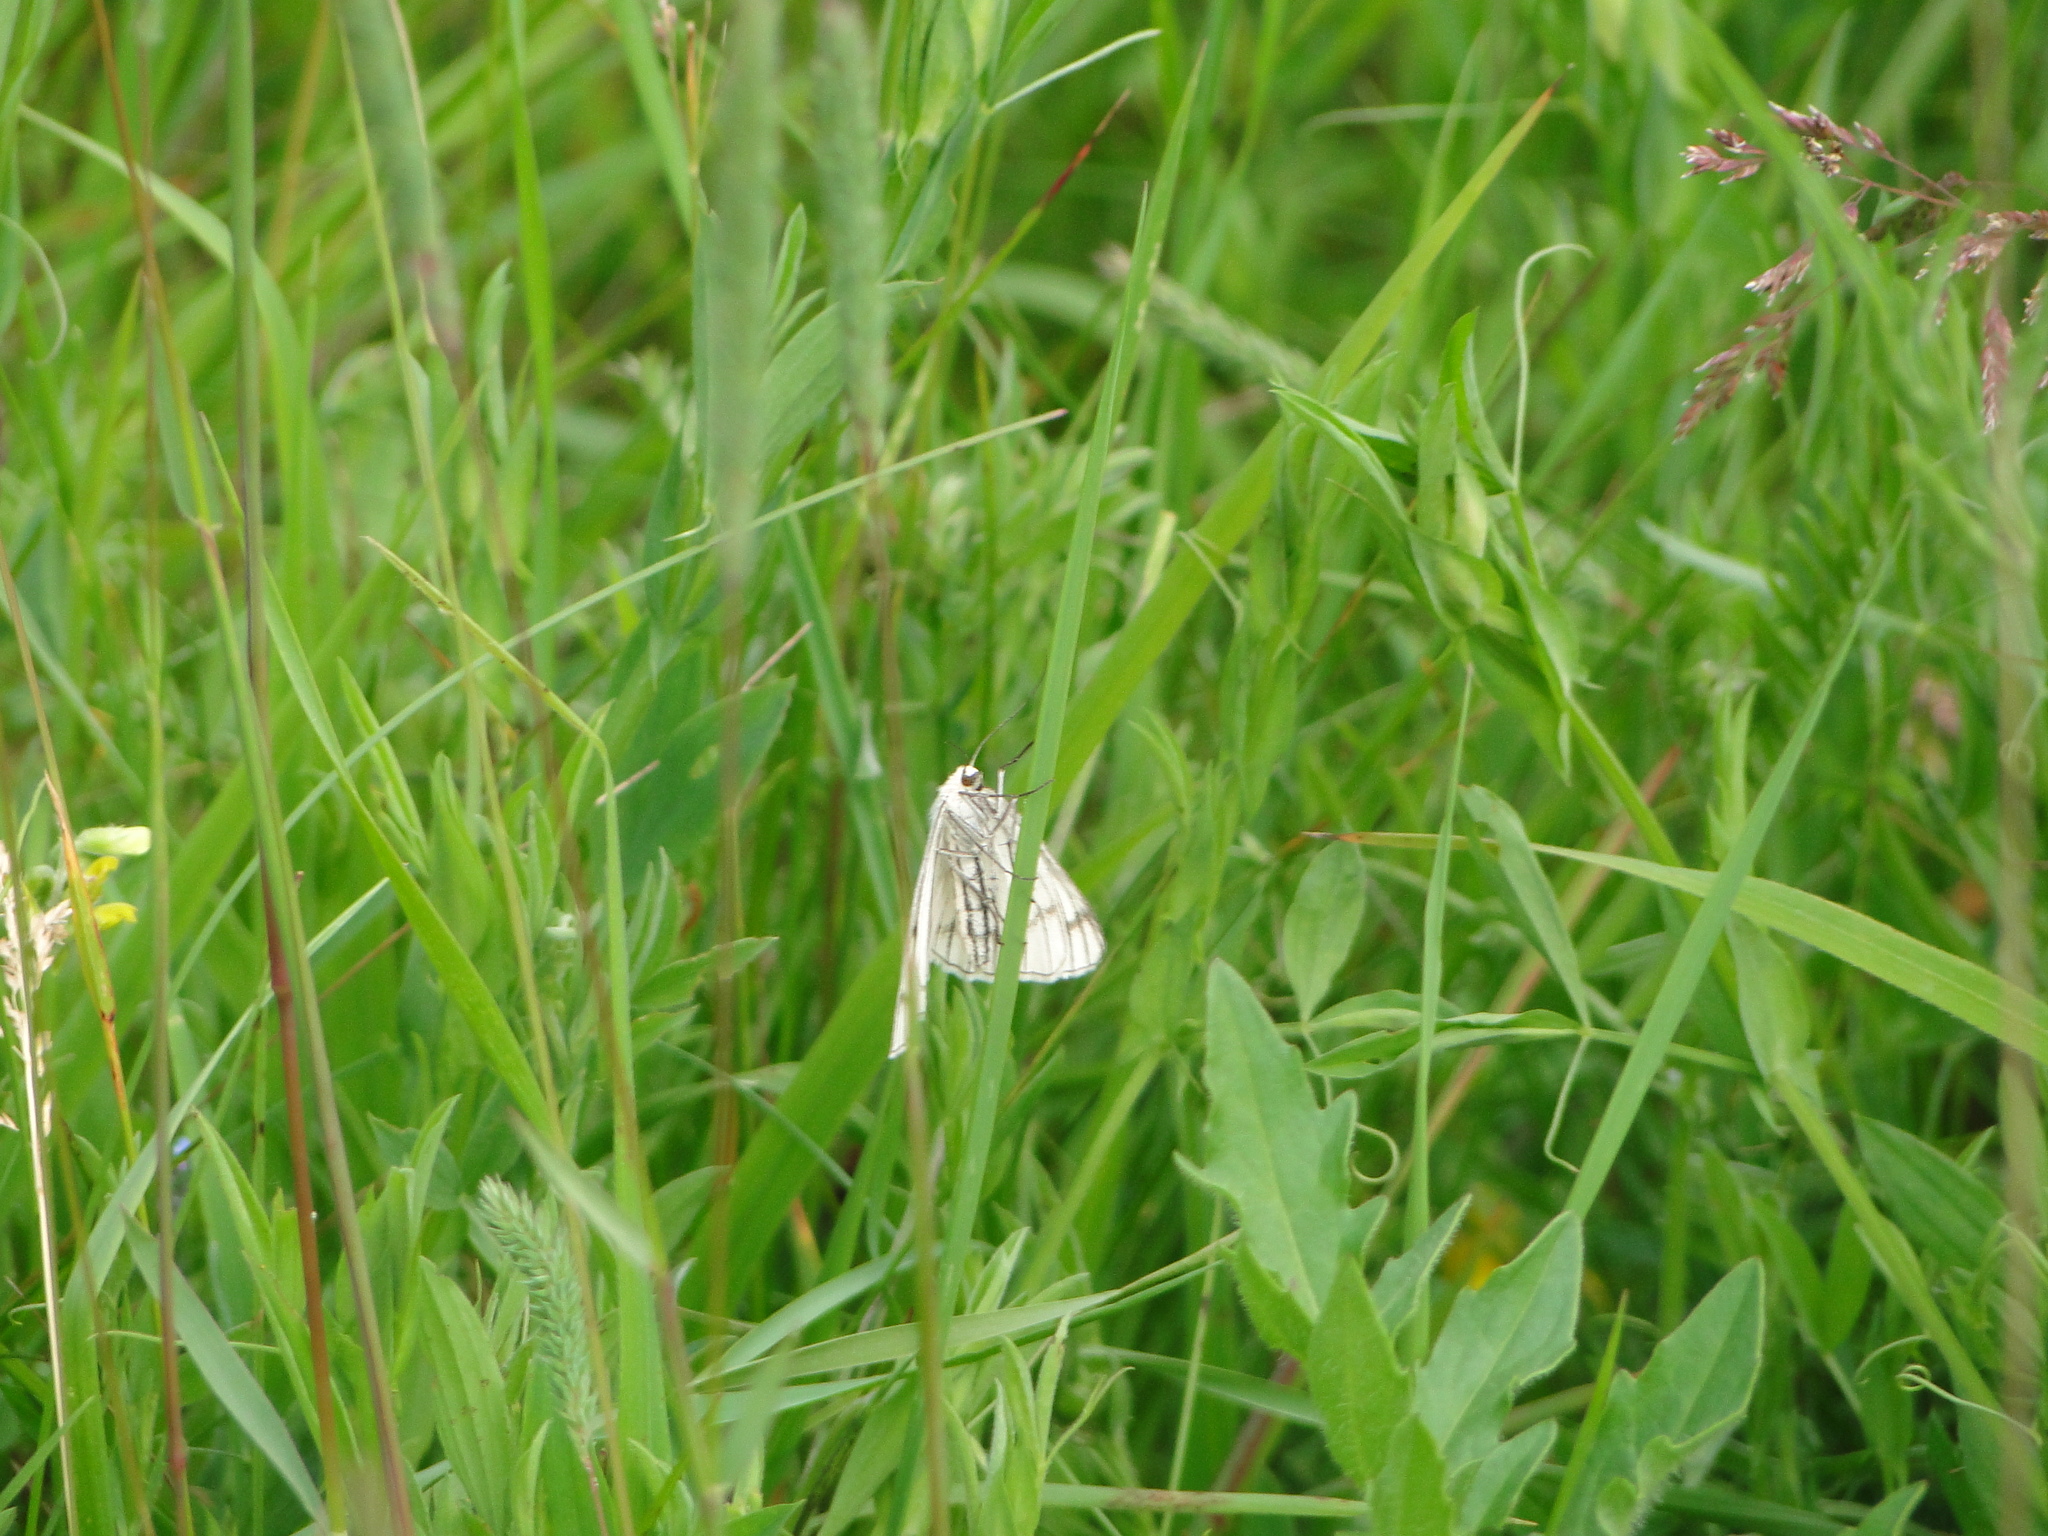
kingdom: Animalia
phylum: Arthropoda
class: Insecta
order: Lepidoptera
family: Geometridae
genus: Siona
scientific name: Siona lineata
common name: Black-veined moth
